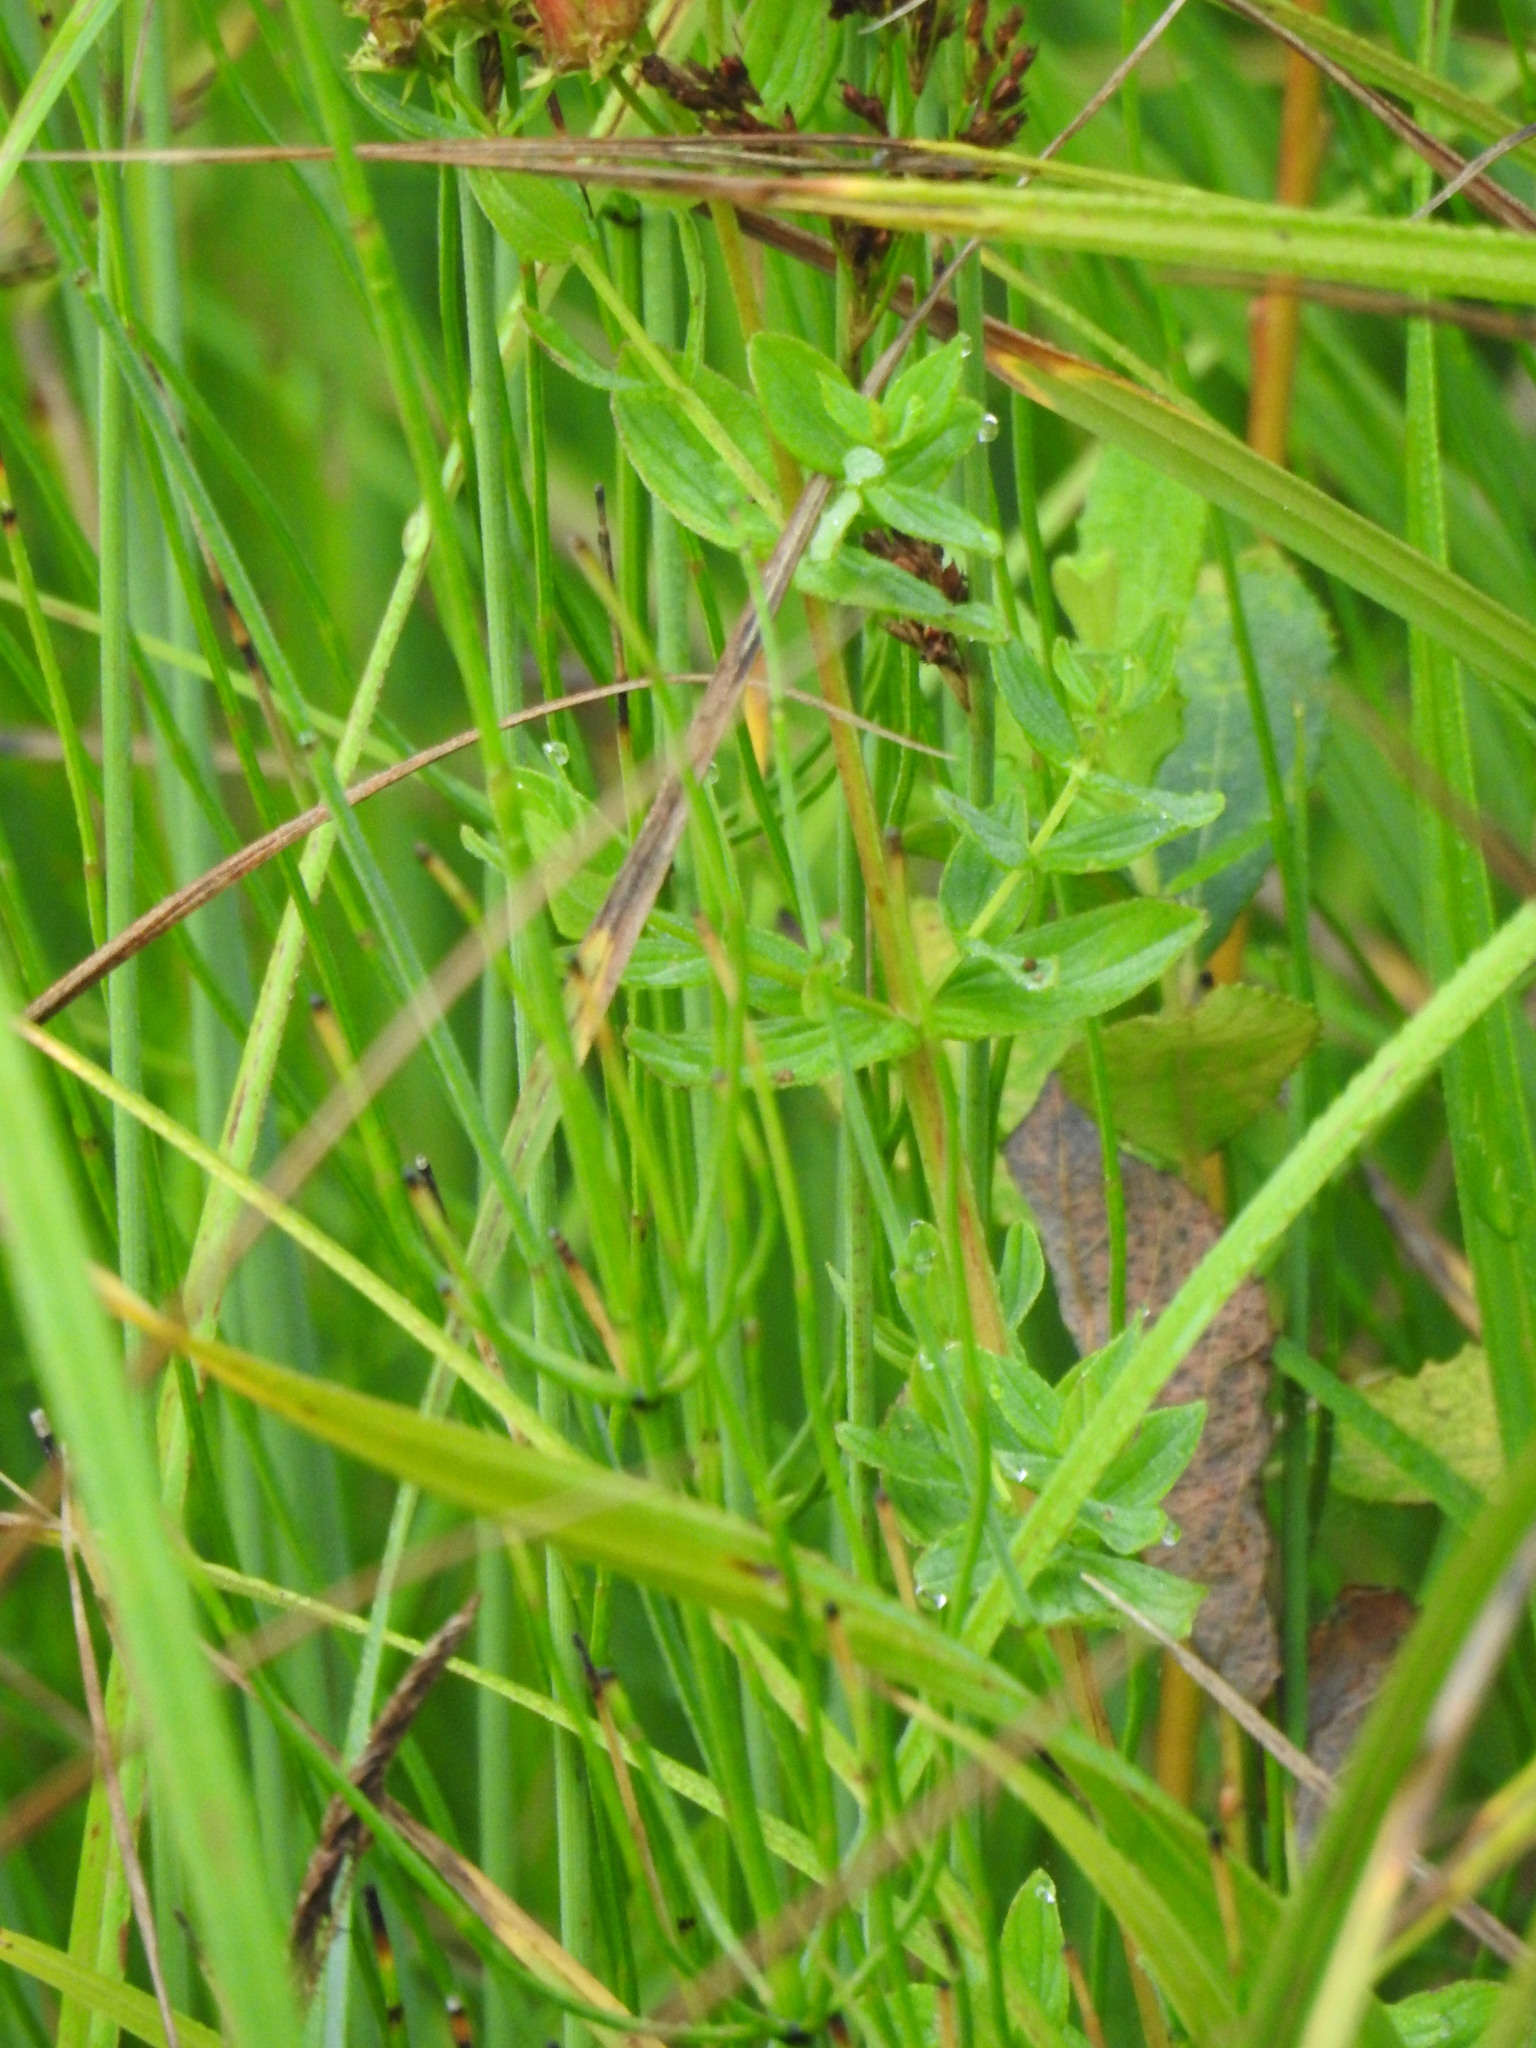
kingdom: Plantae
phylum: Tracheophyta
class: Magnoliopsida
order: Malpighiales
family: Hypericaceae
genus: Hypericum
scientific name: Hypericum tetrapterum
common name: Square-stalked st. john's-wort
